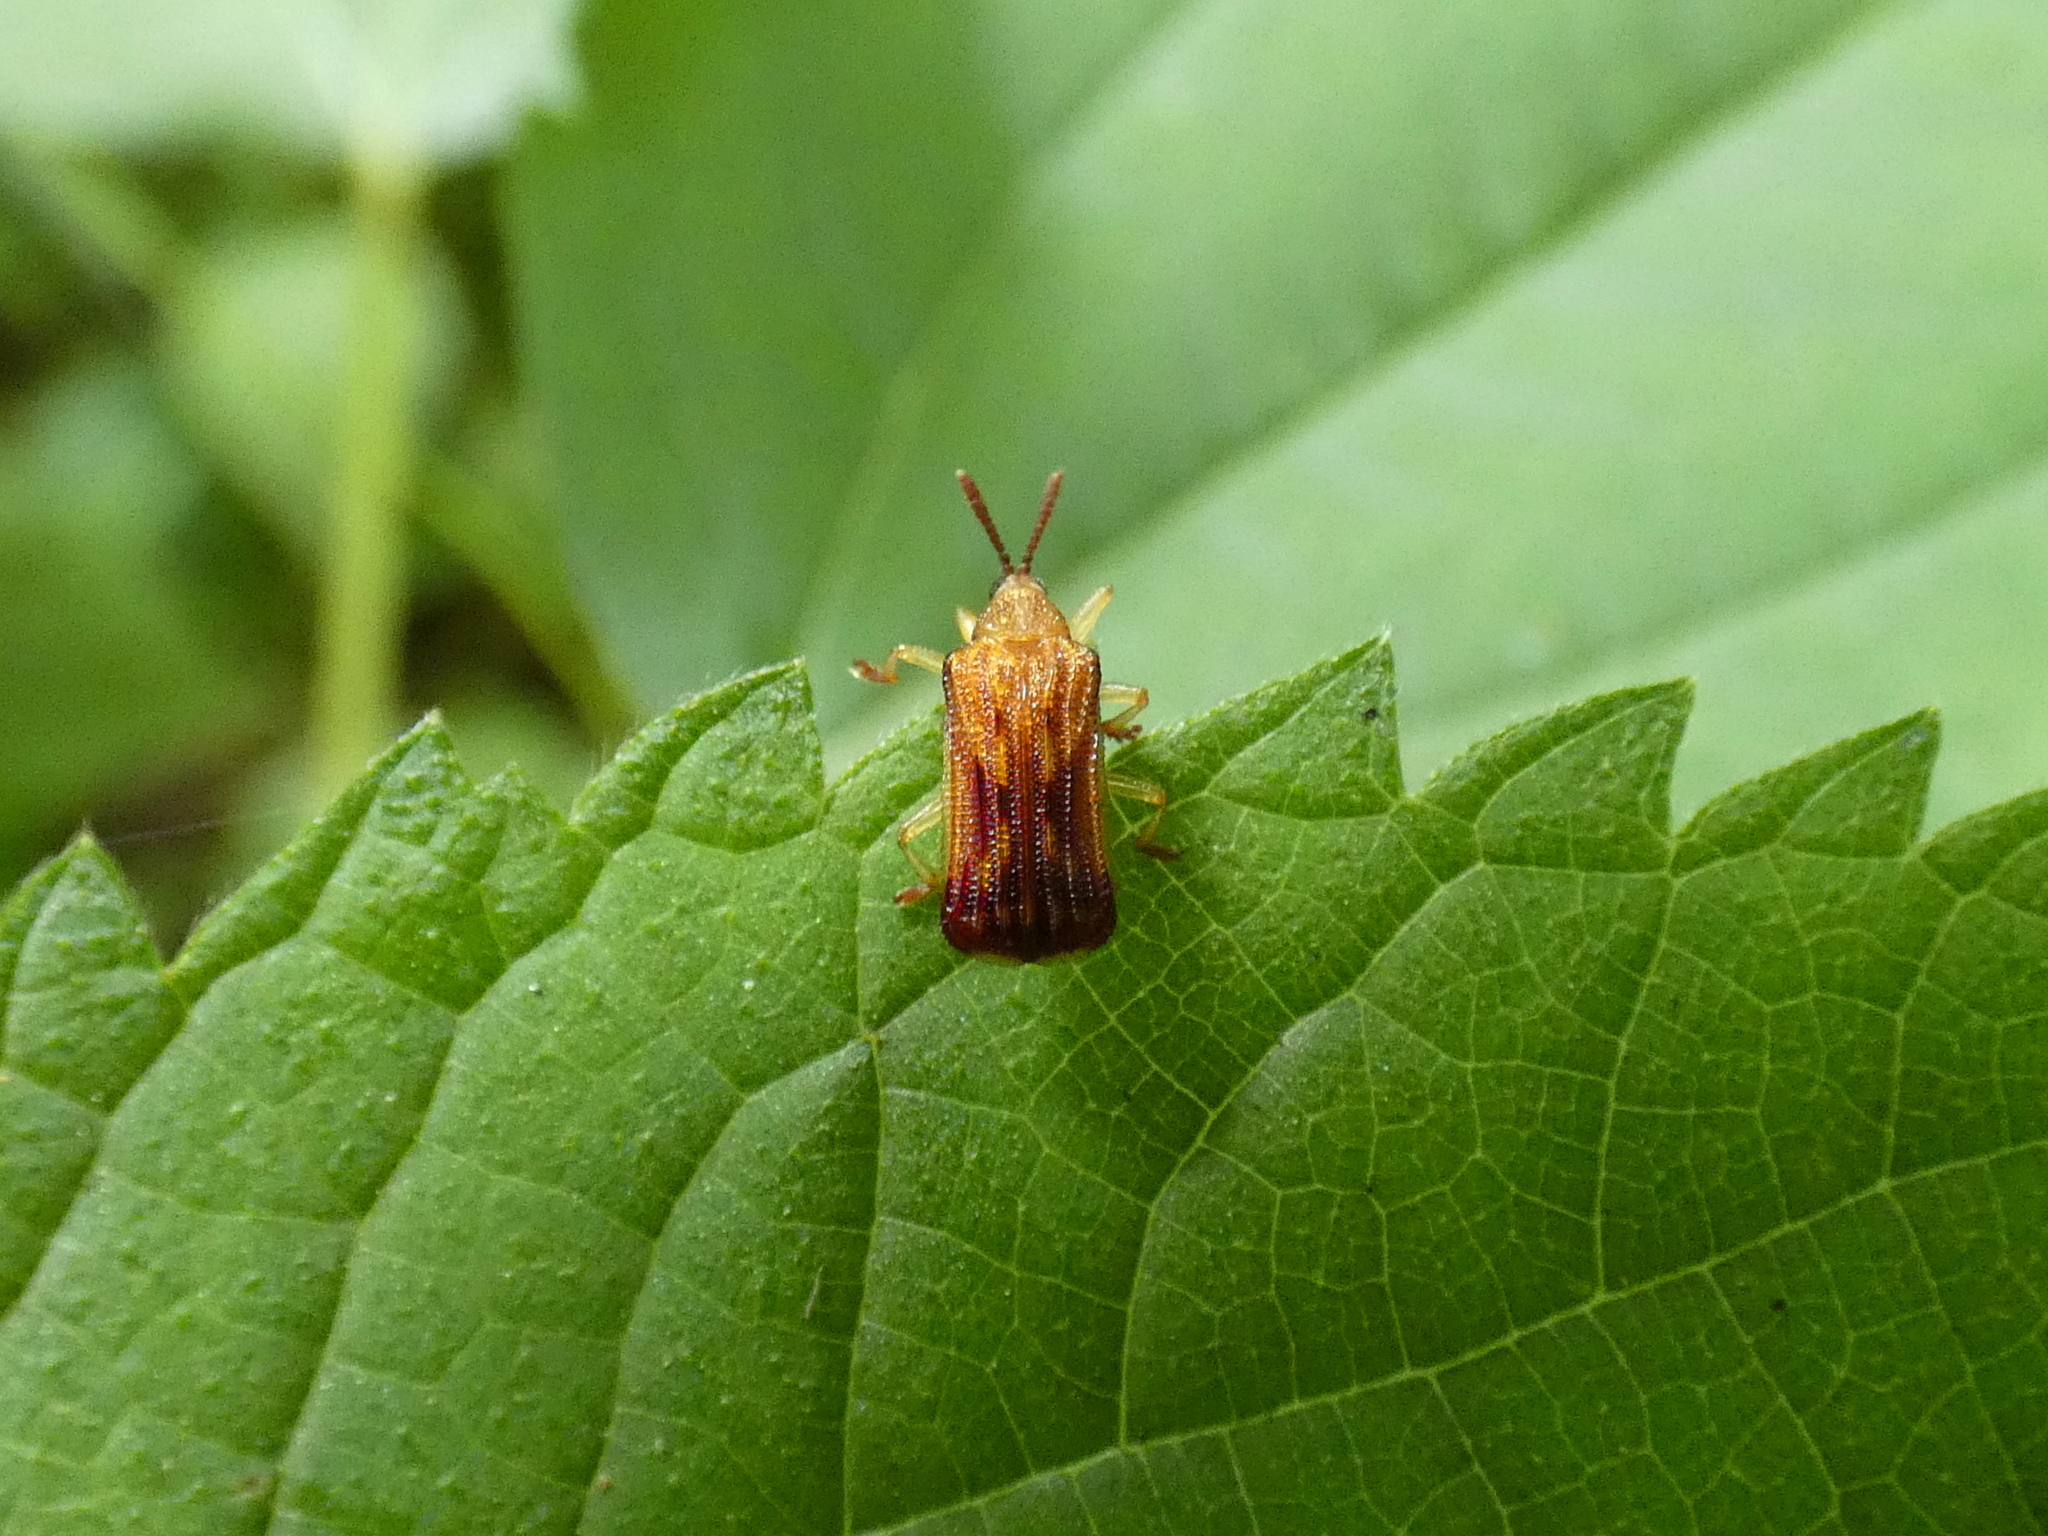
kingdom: Animalia
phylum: Arthropoda
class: Insecta
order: Coleoptera
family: Chrysomelidae
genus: Baliosus
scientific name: Baliosus nervosus
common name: Basswood leaf miner
